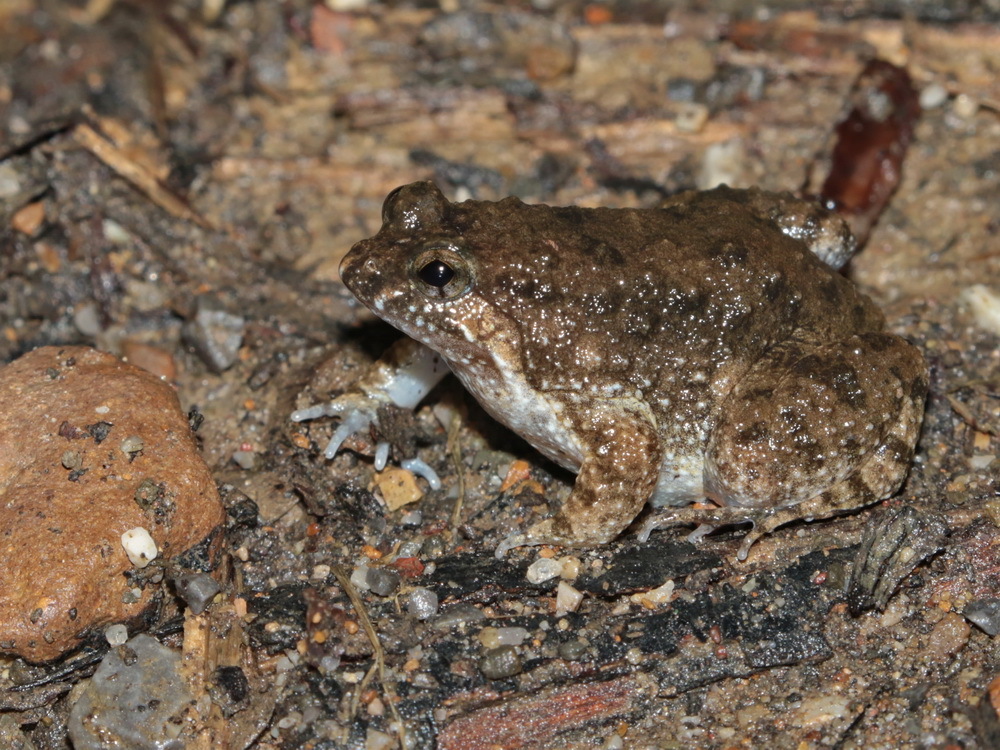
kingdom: Animalia
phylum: Chordata
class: Amphibia
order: Anura
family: Dicroglossidae
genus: Occidozyga
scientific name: Occidozyga martensii
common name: Marten’s oriental frog/round-tongued floating frog
